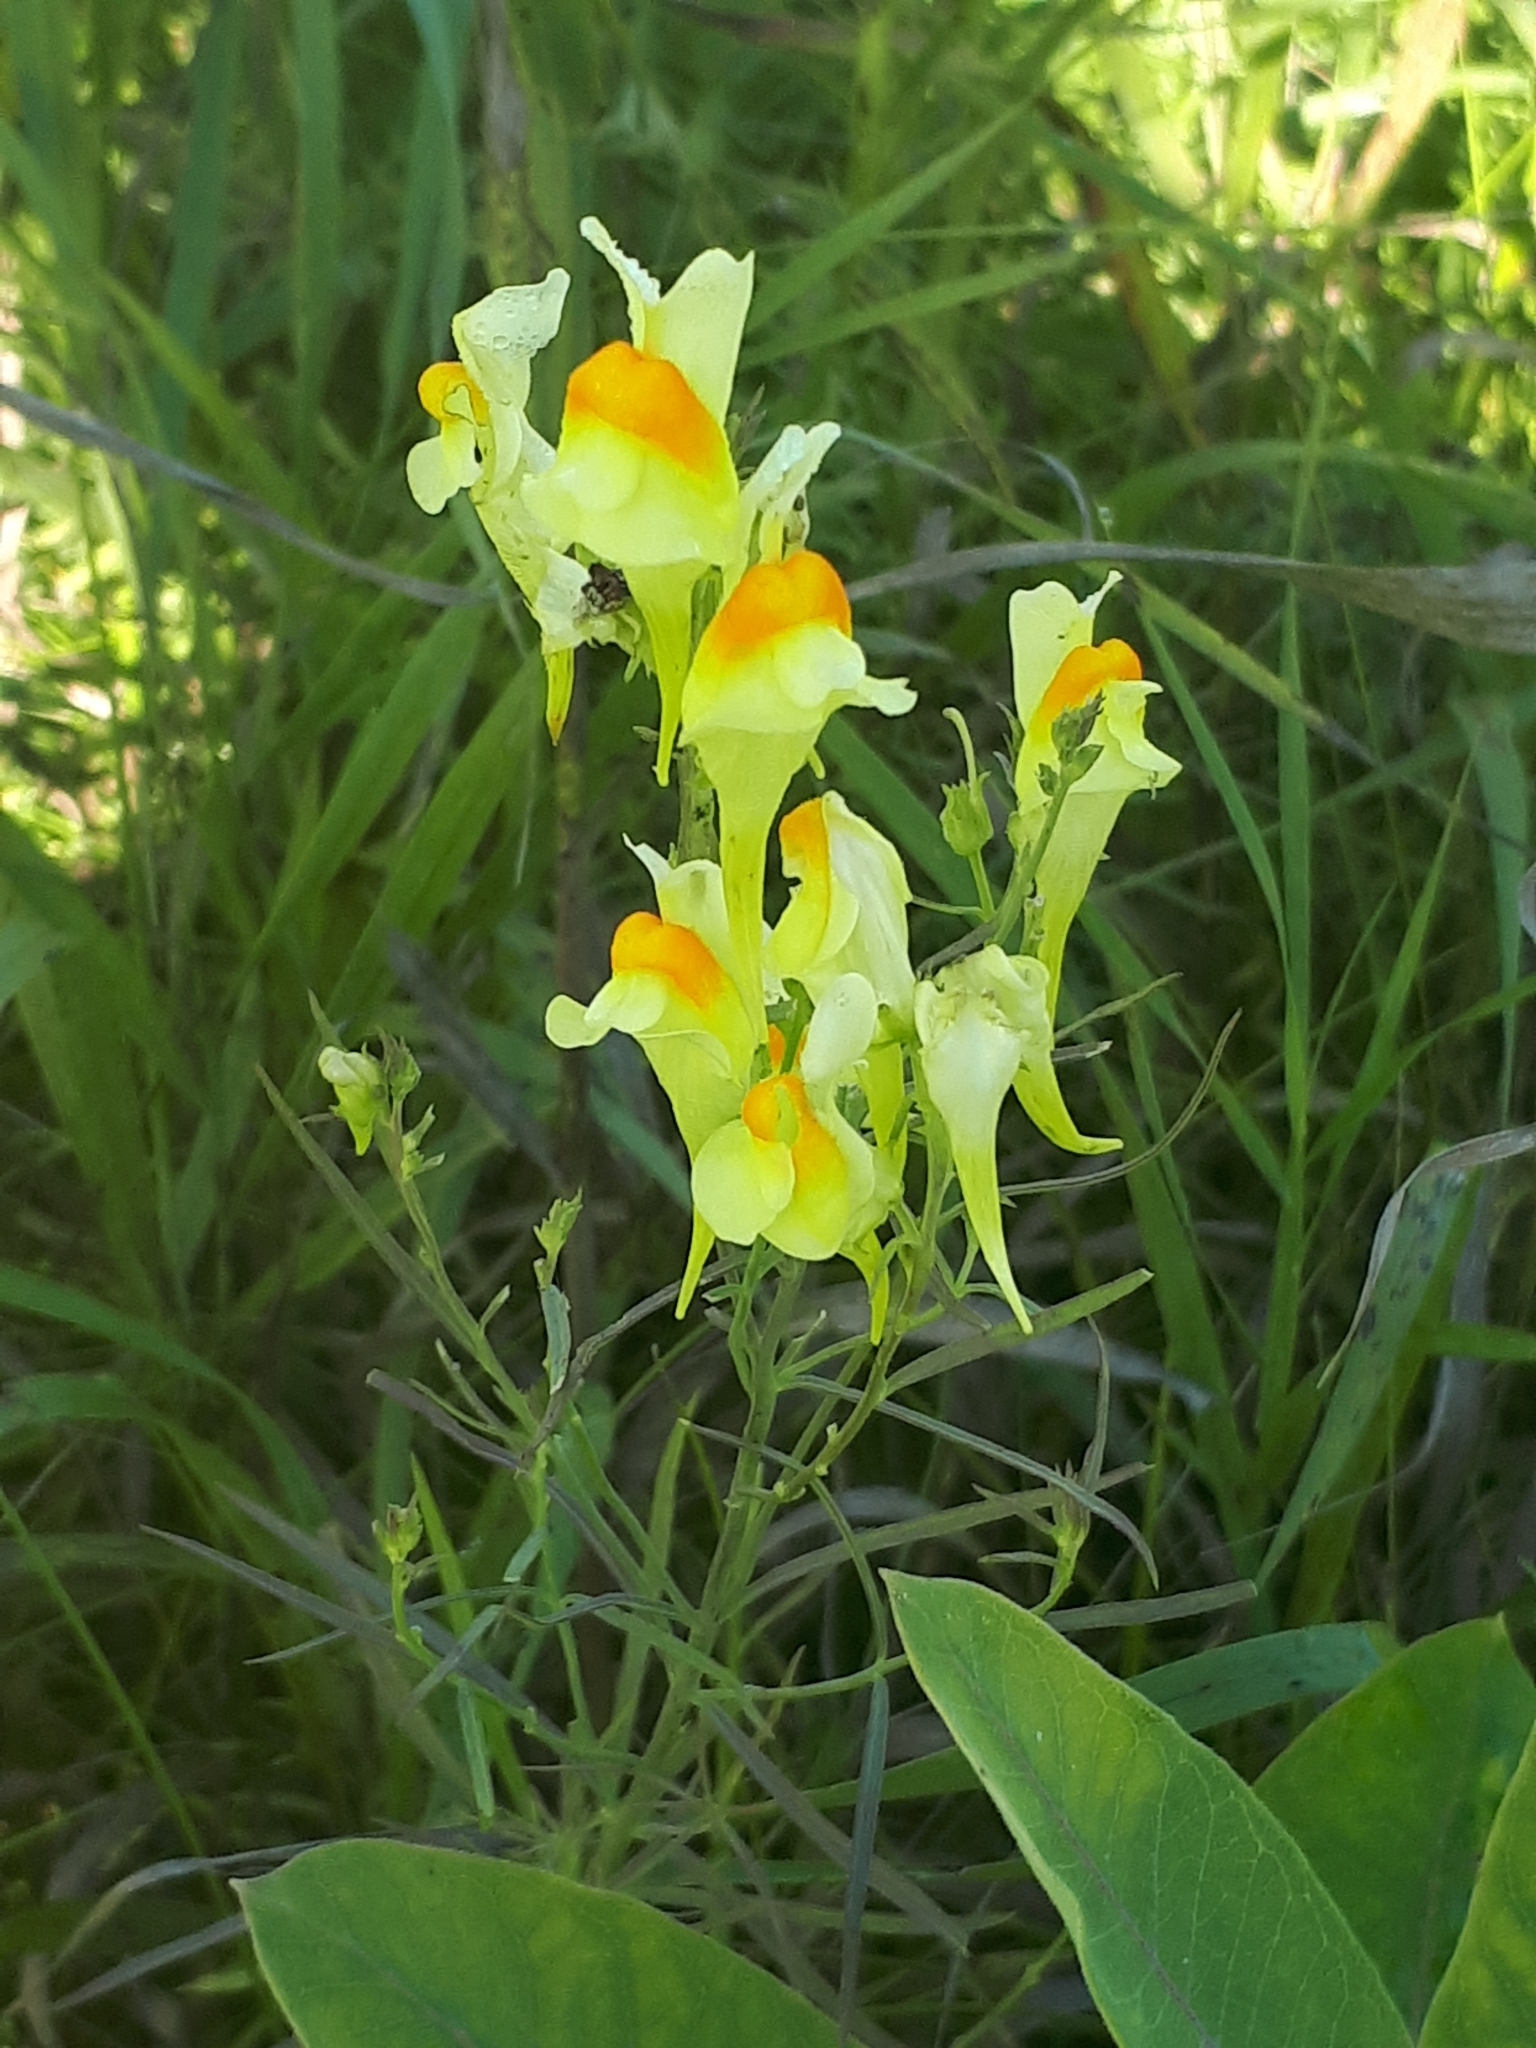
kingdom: Plantae
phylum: Tracheophyta
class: Magnoliopsida
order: Lamiales
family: Plantaginaceae
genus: Linaria
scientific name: Linaria vulgaris
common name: Butter and eggs
